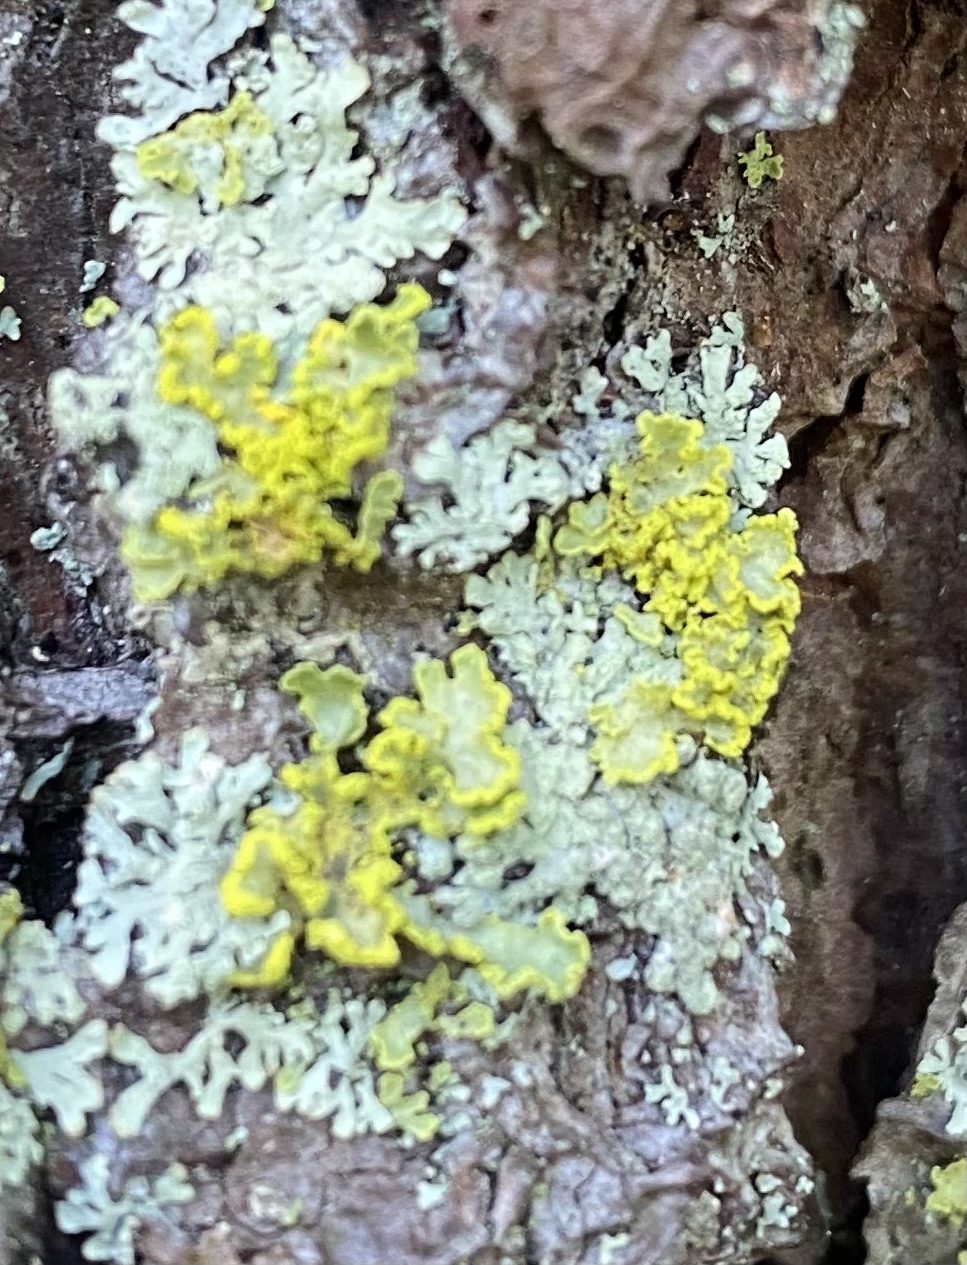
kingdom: Fungi
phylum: Ascomycota
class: Lecanoromycetes
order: Lecanorales
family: Parmeliaceae
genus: Vulpicida
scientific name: Vulpicida pinastri
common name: Powdered sunshine lichen
